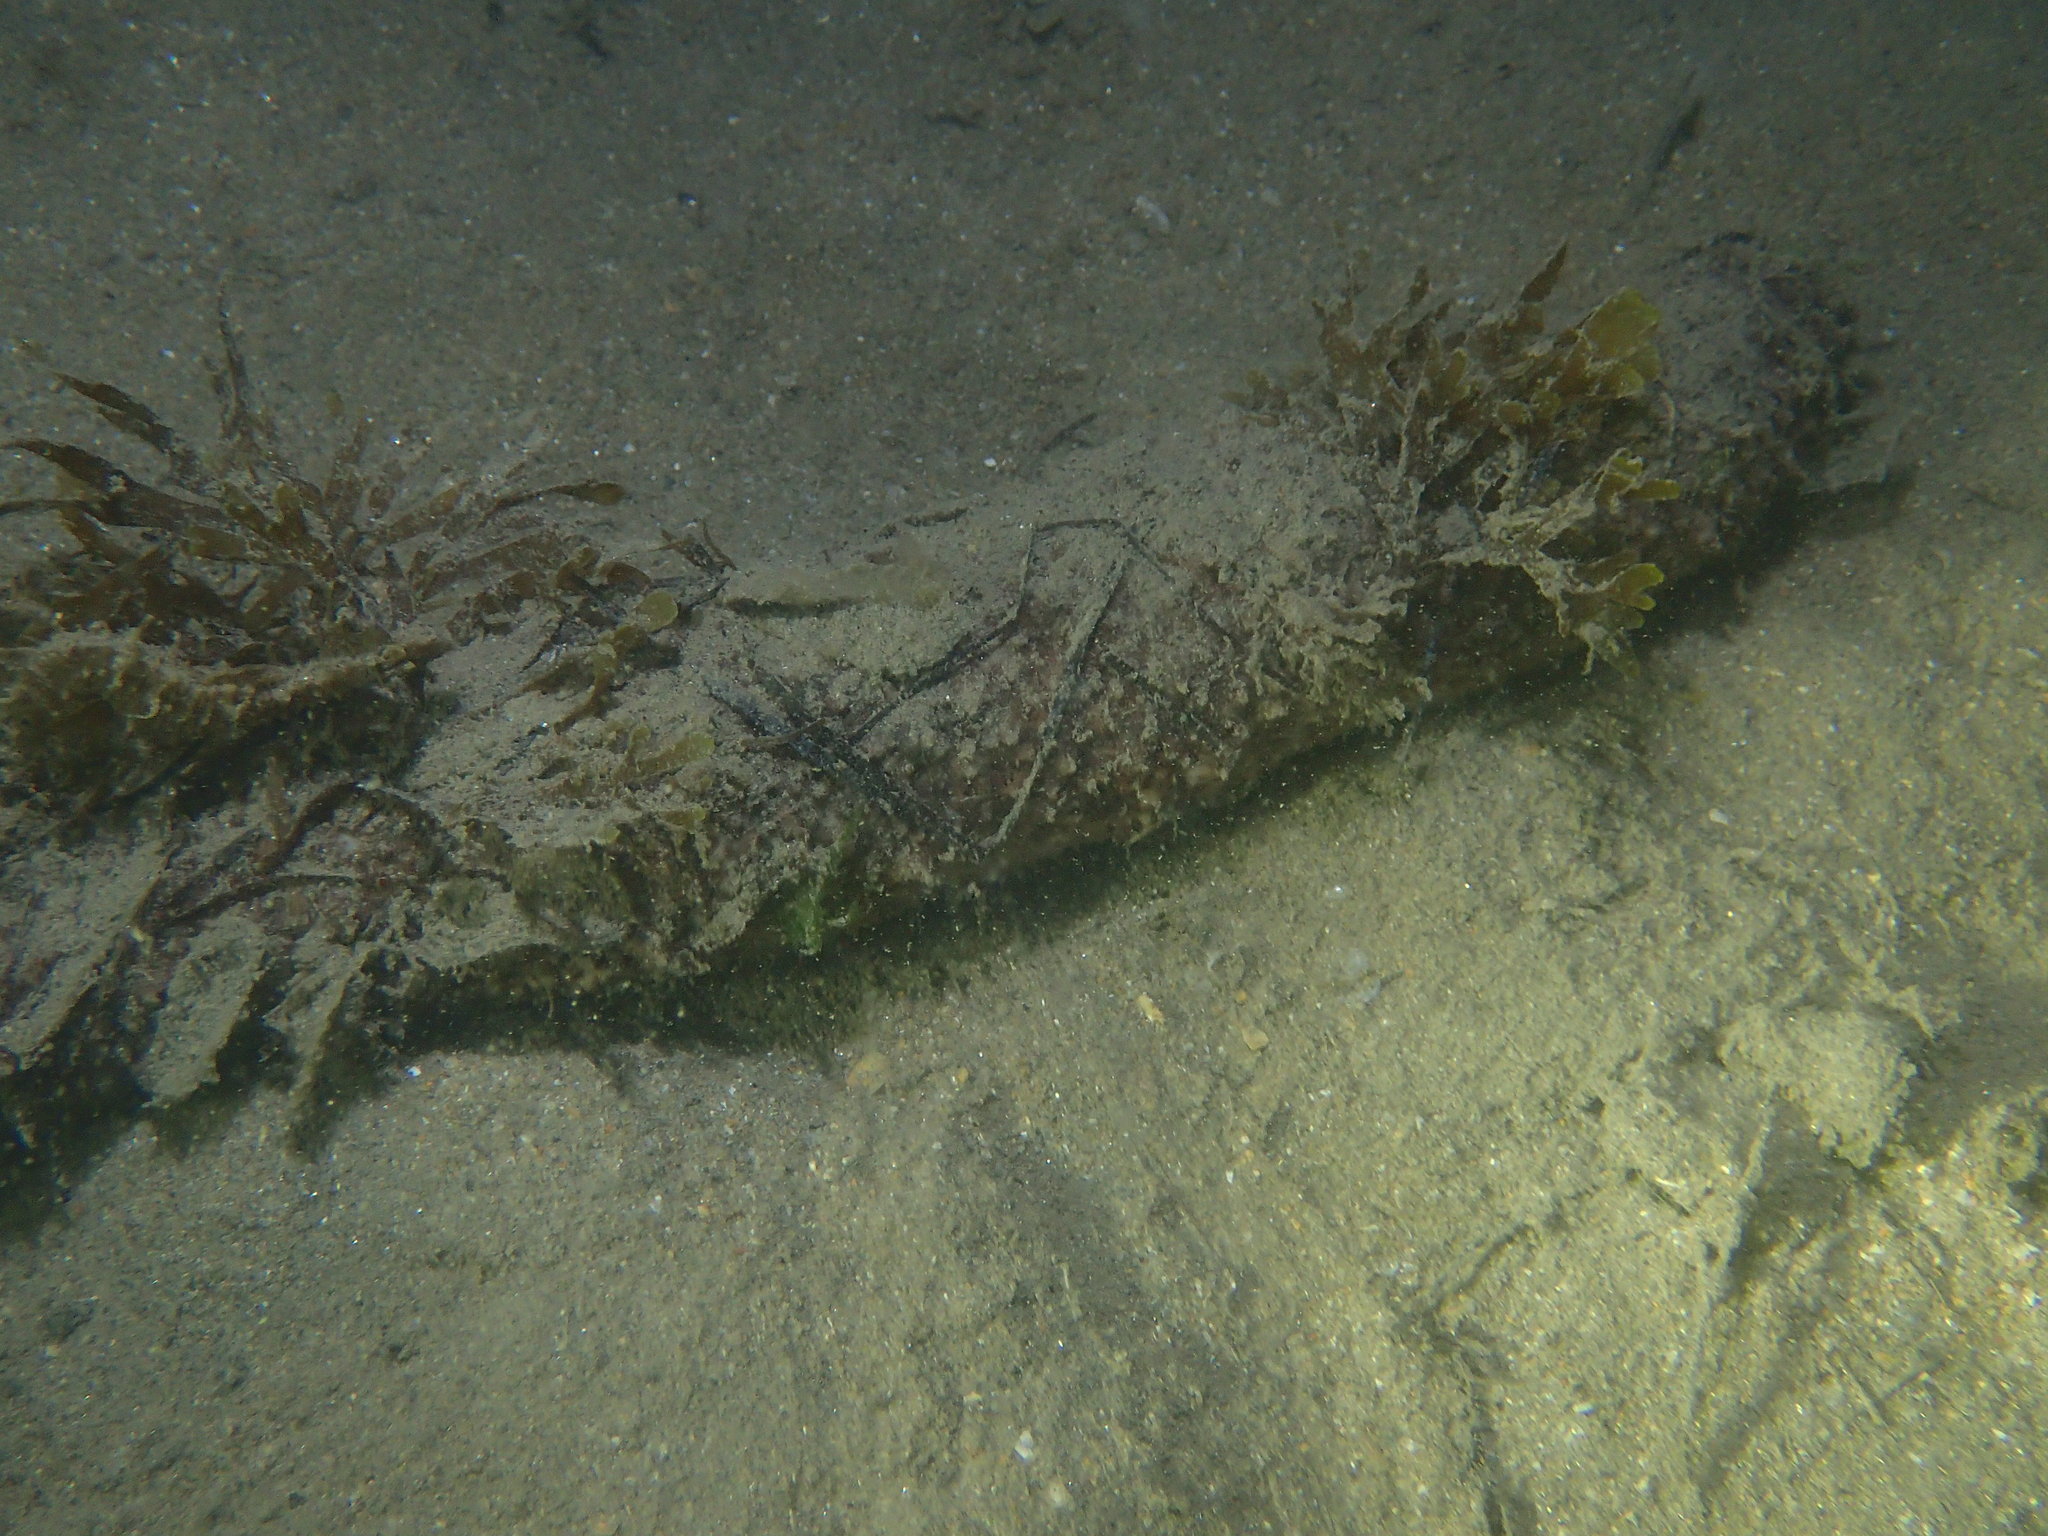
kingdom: Animalia
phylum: Echinodermata
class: Holothuroidea
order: Holothuriida
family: Holothuriidae
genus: Holothuria
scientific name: Holothuria
